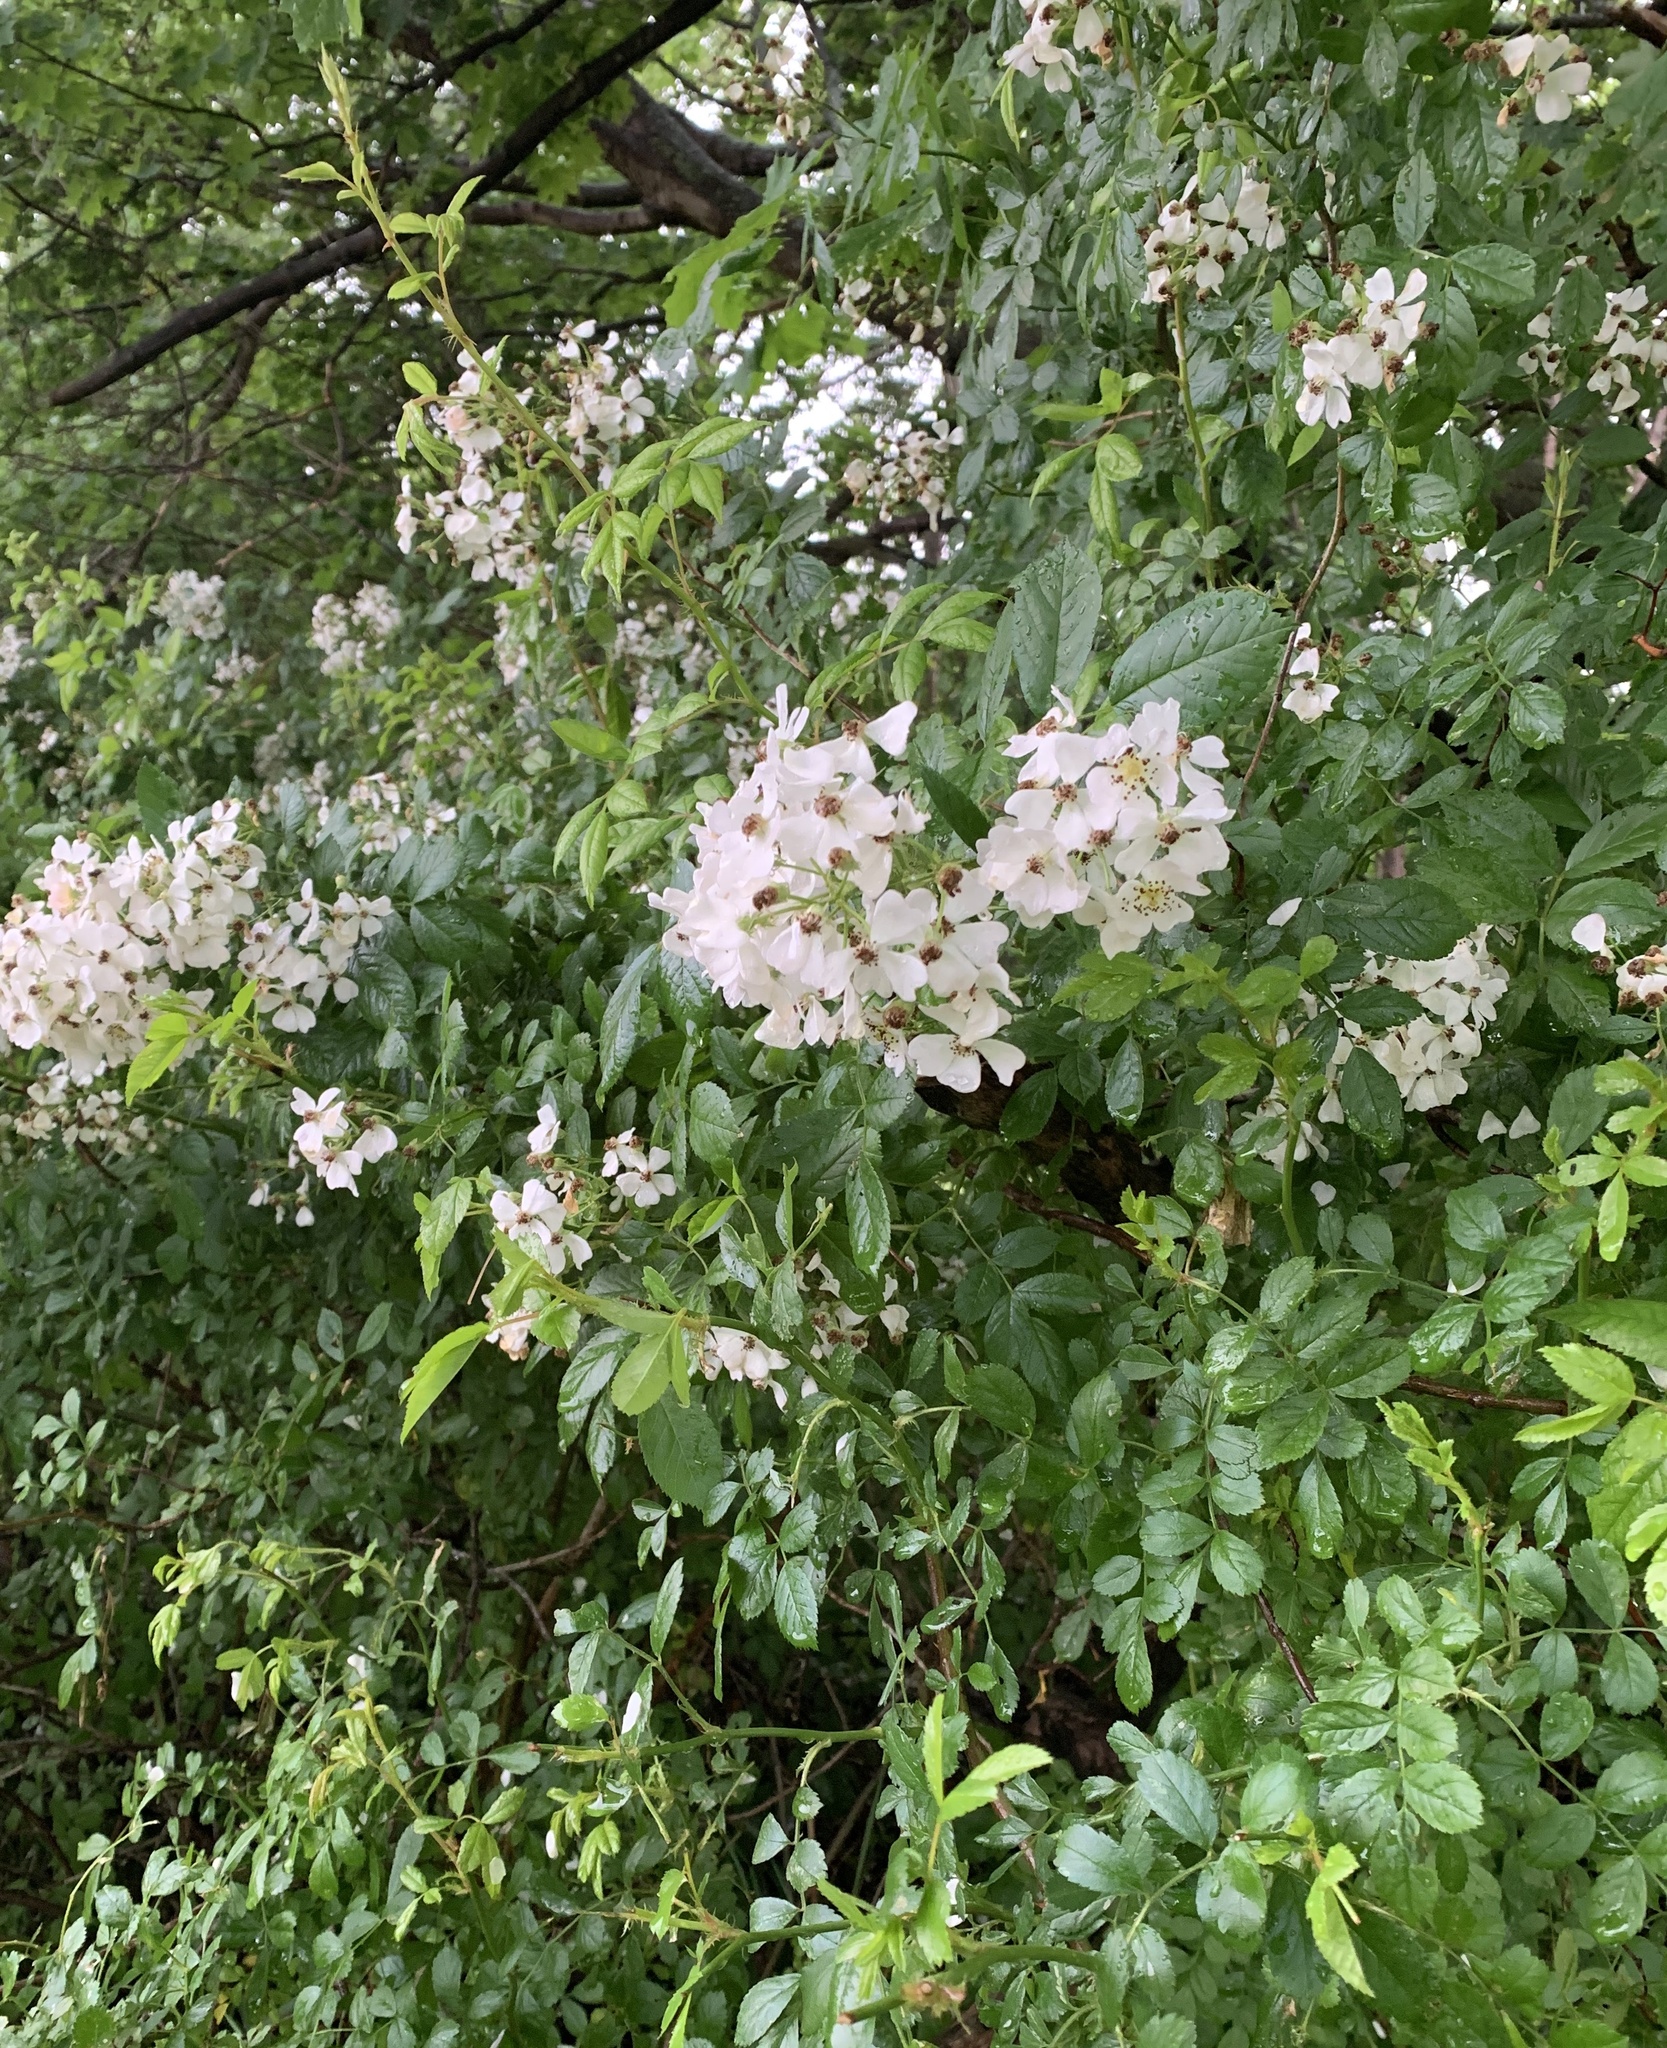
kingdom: Plantae
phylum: Tracheophyta
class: Magnoliopsida
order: Rosales
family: Rosaceae
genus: Rosa
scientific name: Rosa multiflora
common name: Multiflora rose
